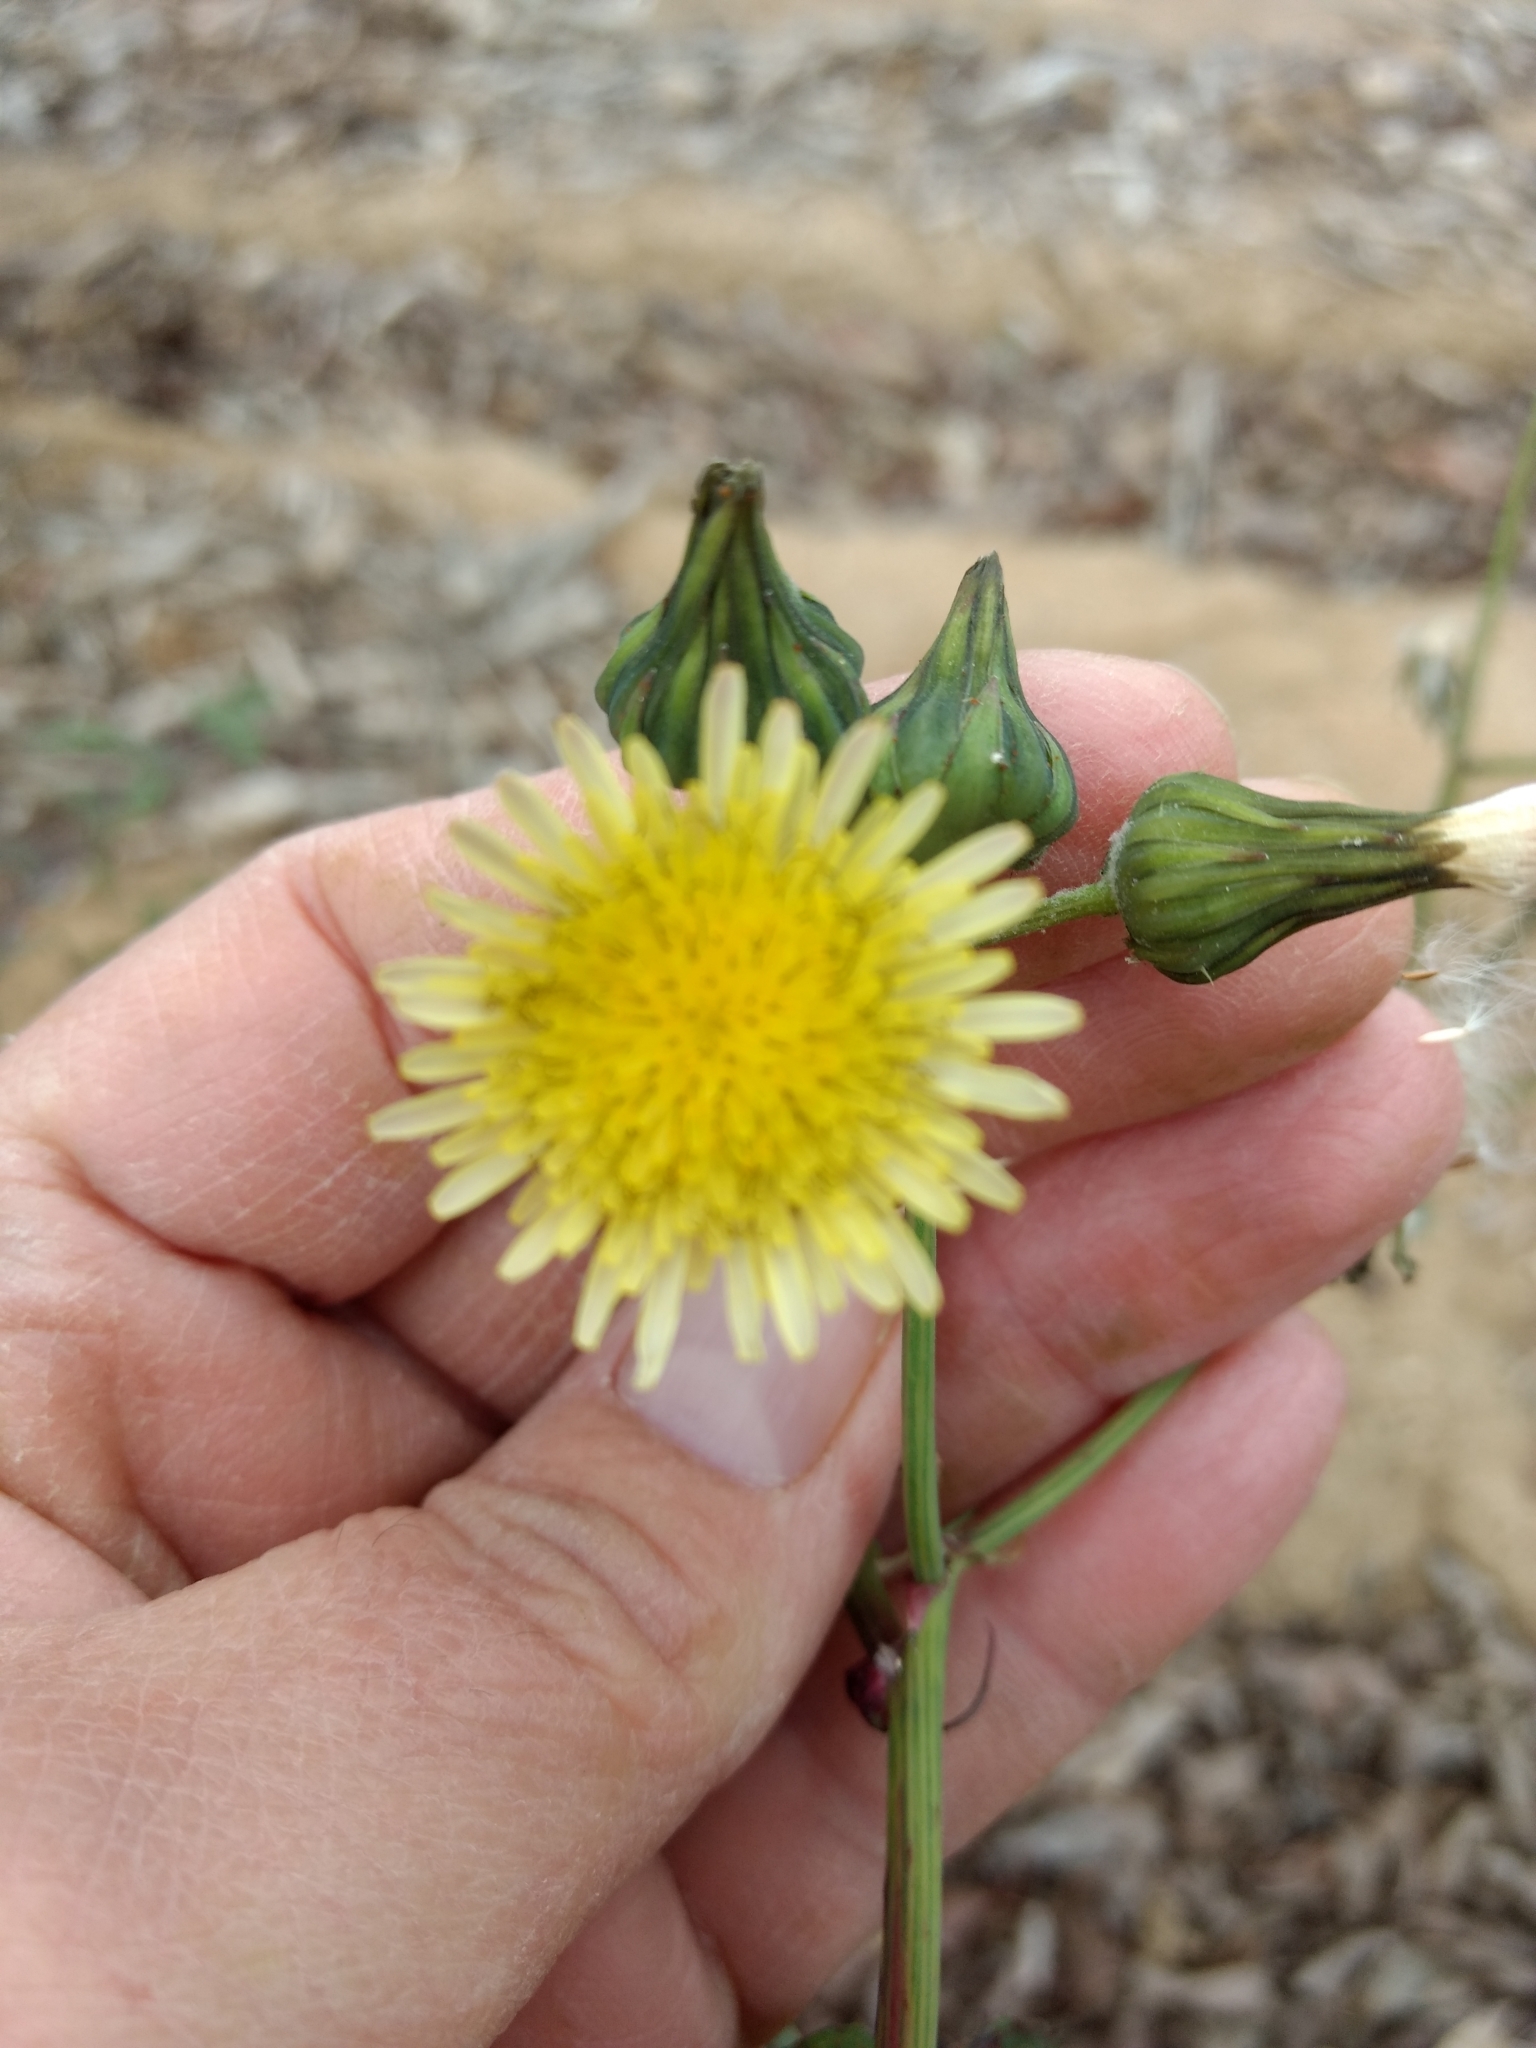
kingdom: Plantae
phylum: Tracheophyta
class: Magnoliopsida
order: Asterales
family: Asteraceae
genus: Sonchus
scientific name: Sonchus oleraceus
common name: Common sowthistle
